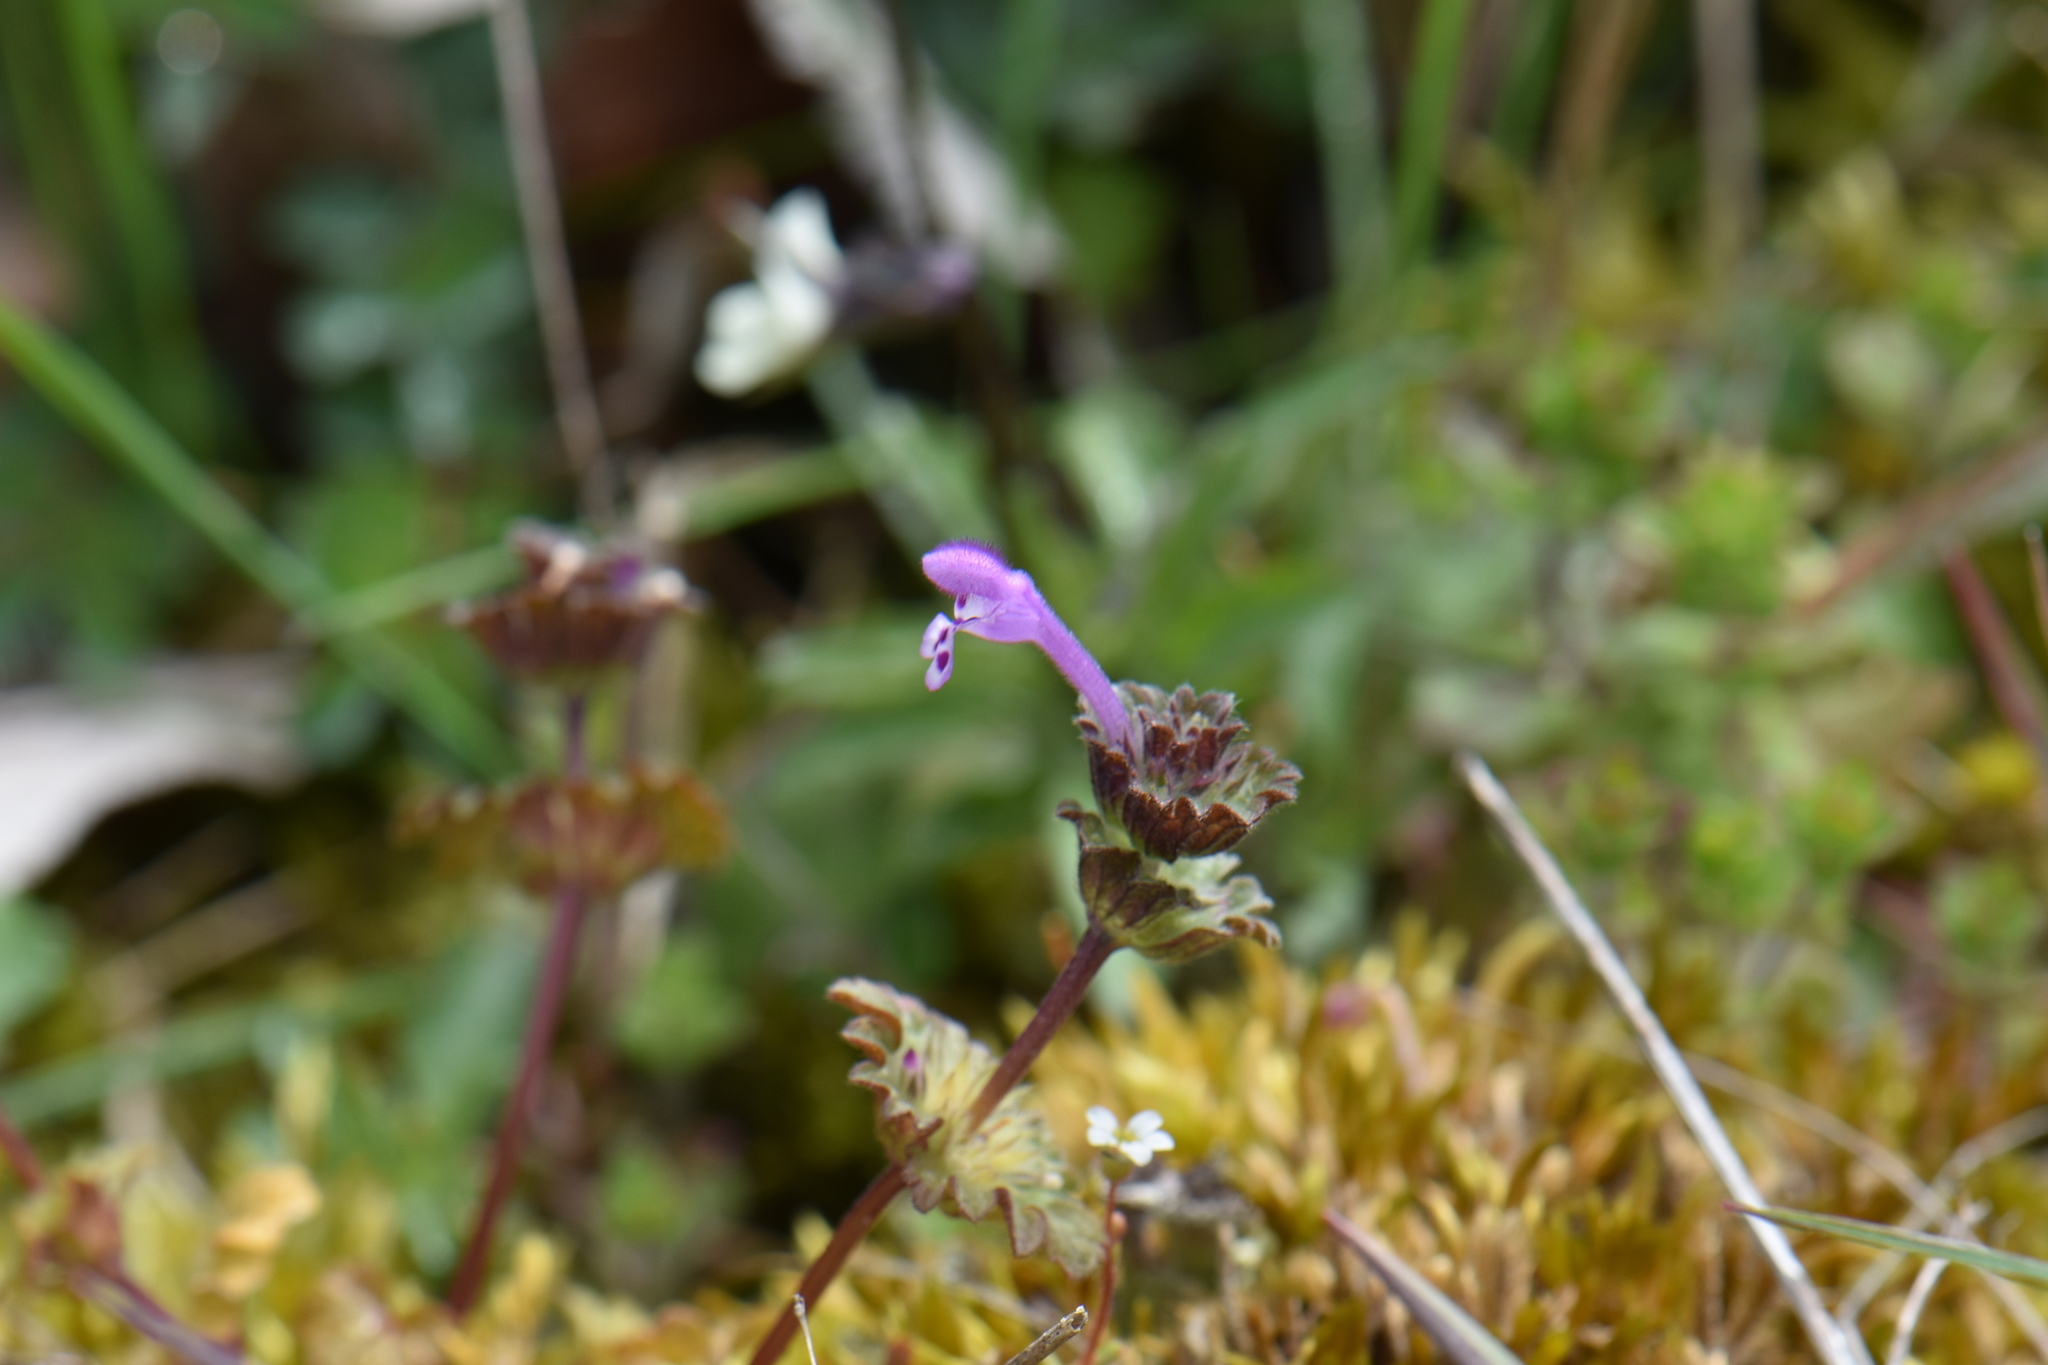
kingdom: Plantae
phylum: Tracheophyta
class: Magnoliopsida
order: Lamiales
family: Lamiaceae
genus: Lamium
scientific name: Lamium amplexicaule
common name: Henbit dead-nettle
